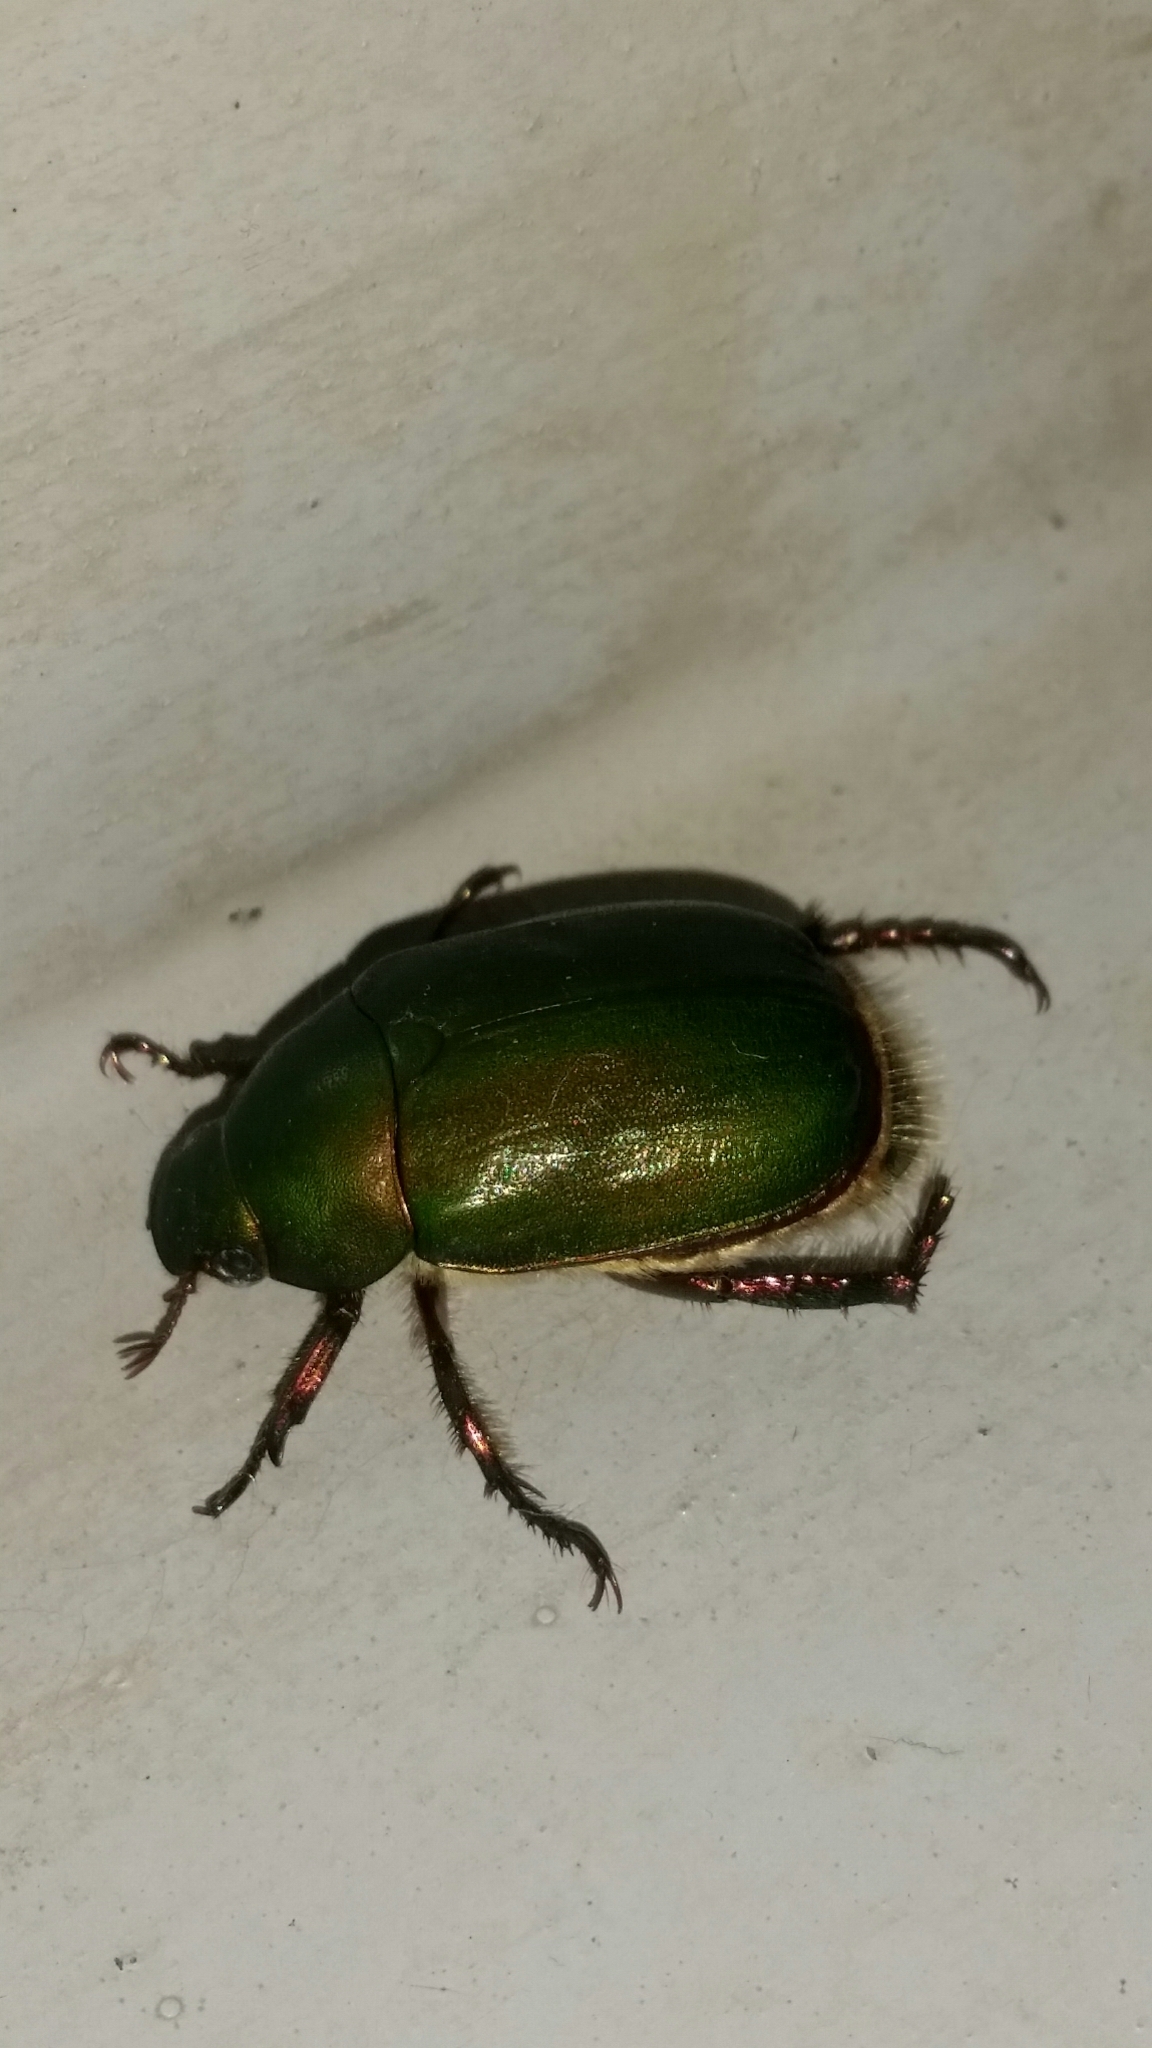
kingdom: Animalia
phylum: Arthropoda
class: Insecta
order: Coleoptera
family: Scarabaeidae
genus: Anomala
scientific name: Anomala albopilosa
